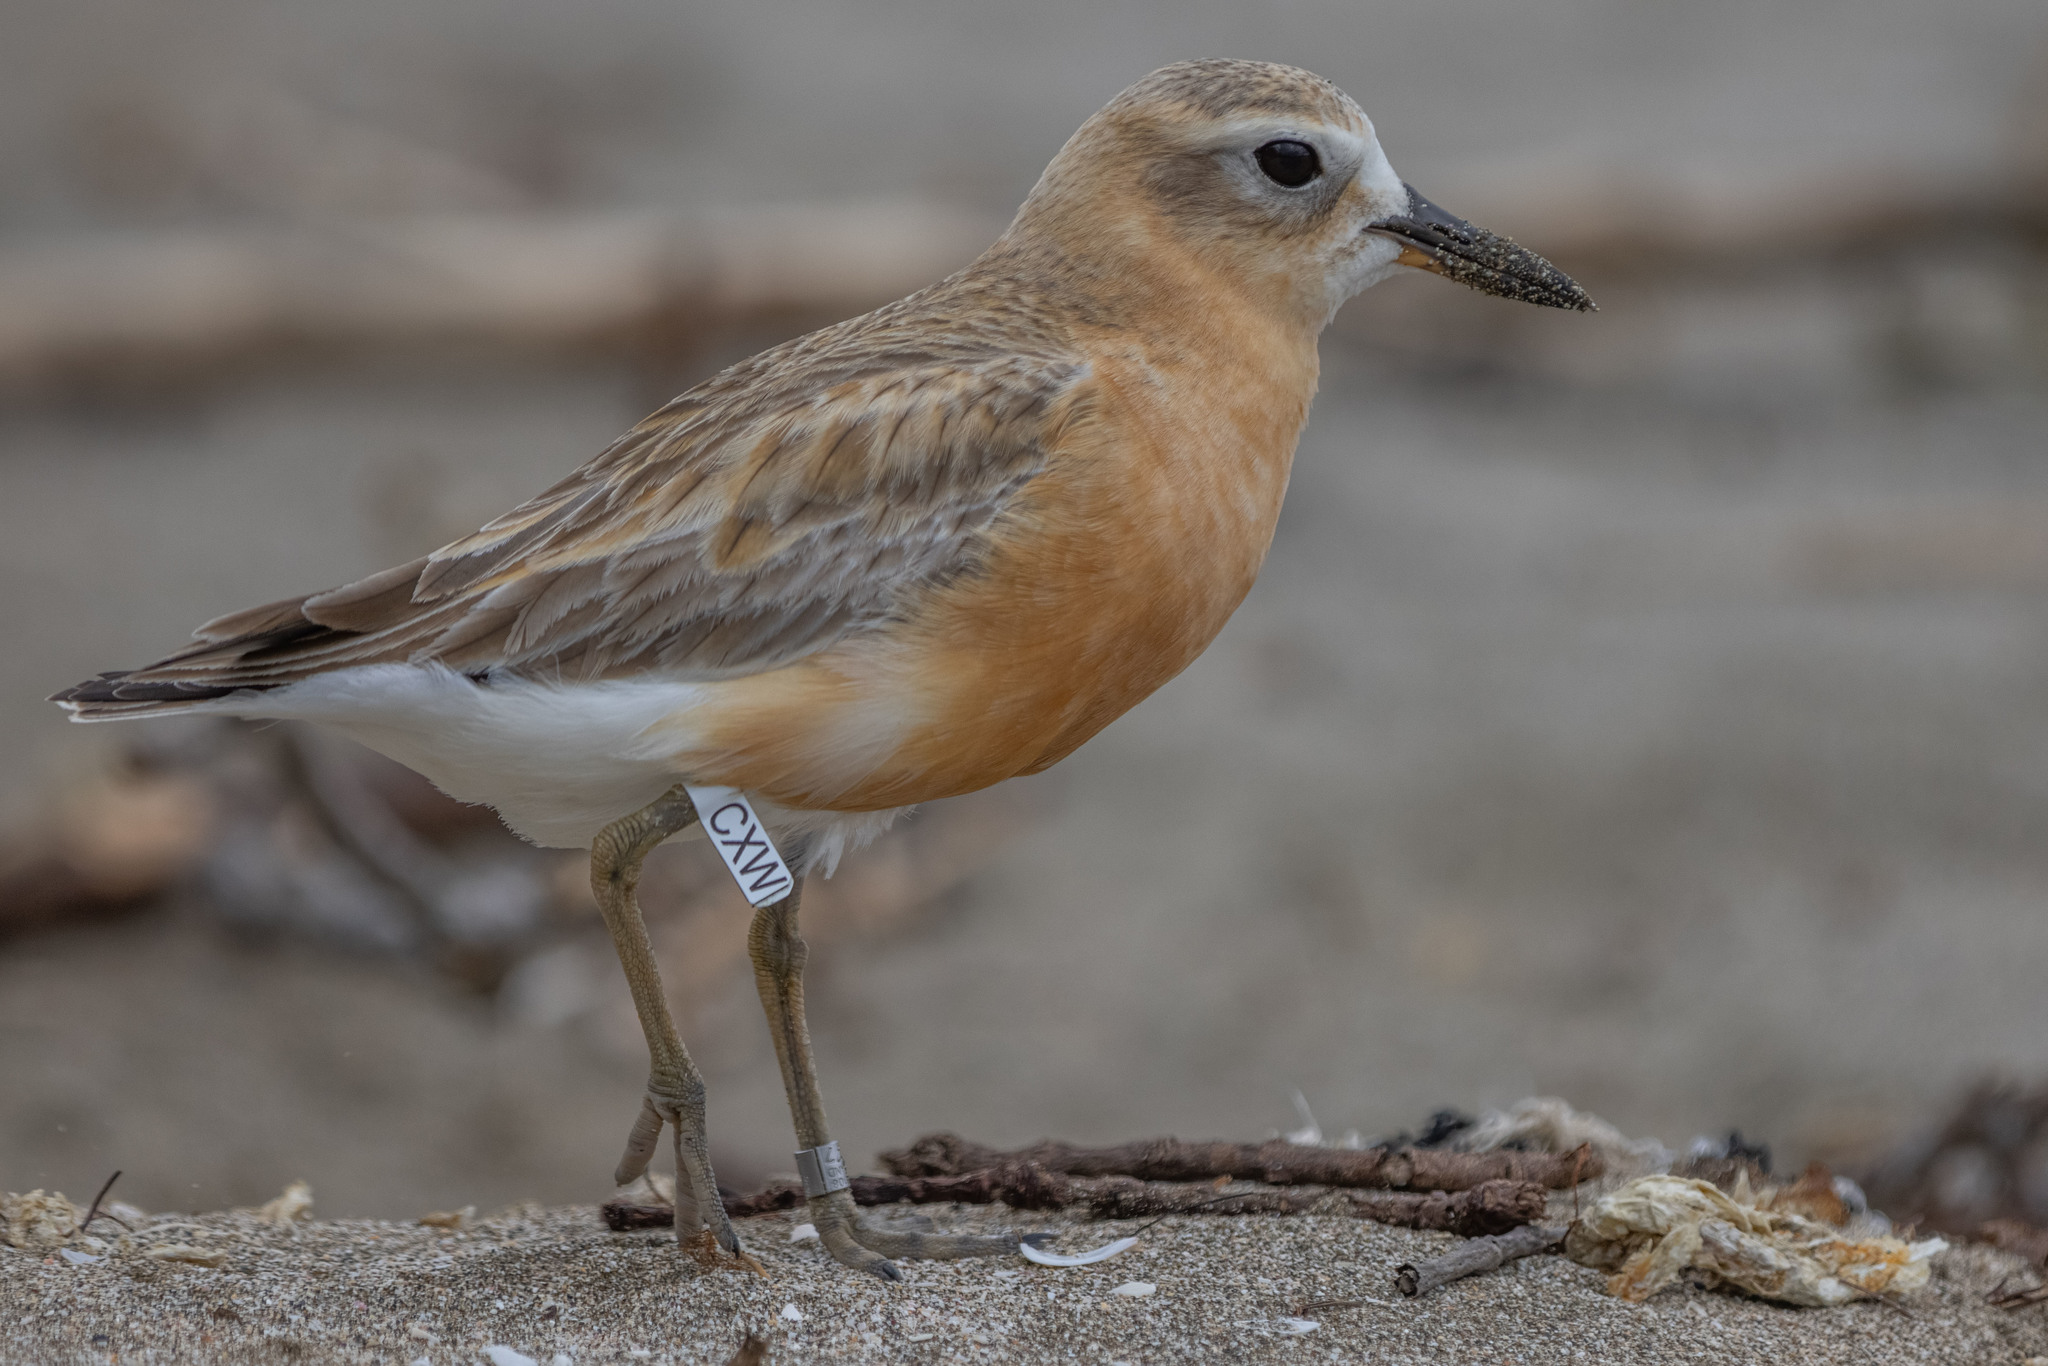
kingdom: Animalia
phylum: Chordata
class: Aves
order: Charadriiformes
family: Charadriidae
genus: Anarhynchus
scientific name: Anarhynchus
